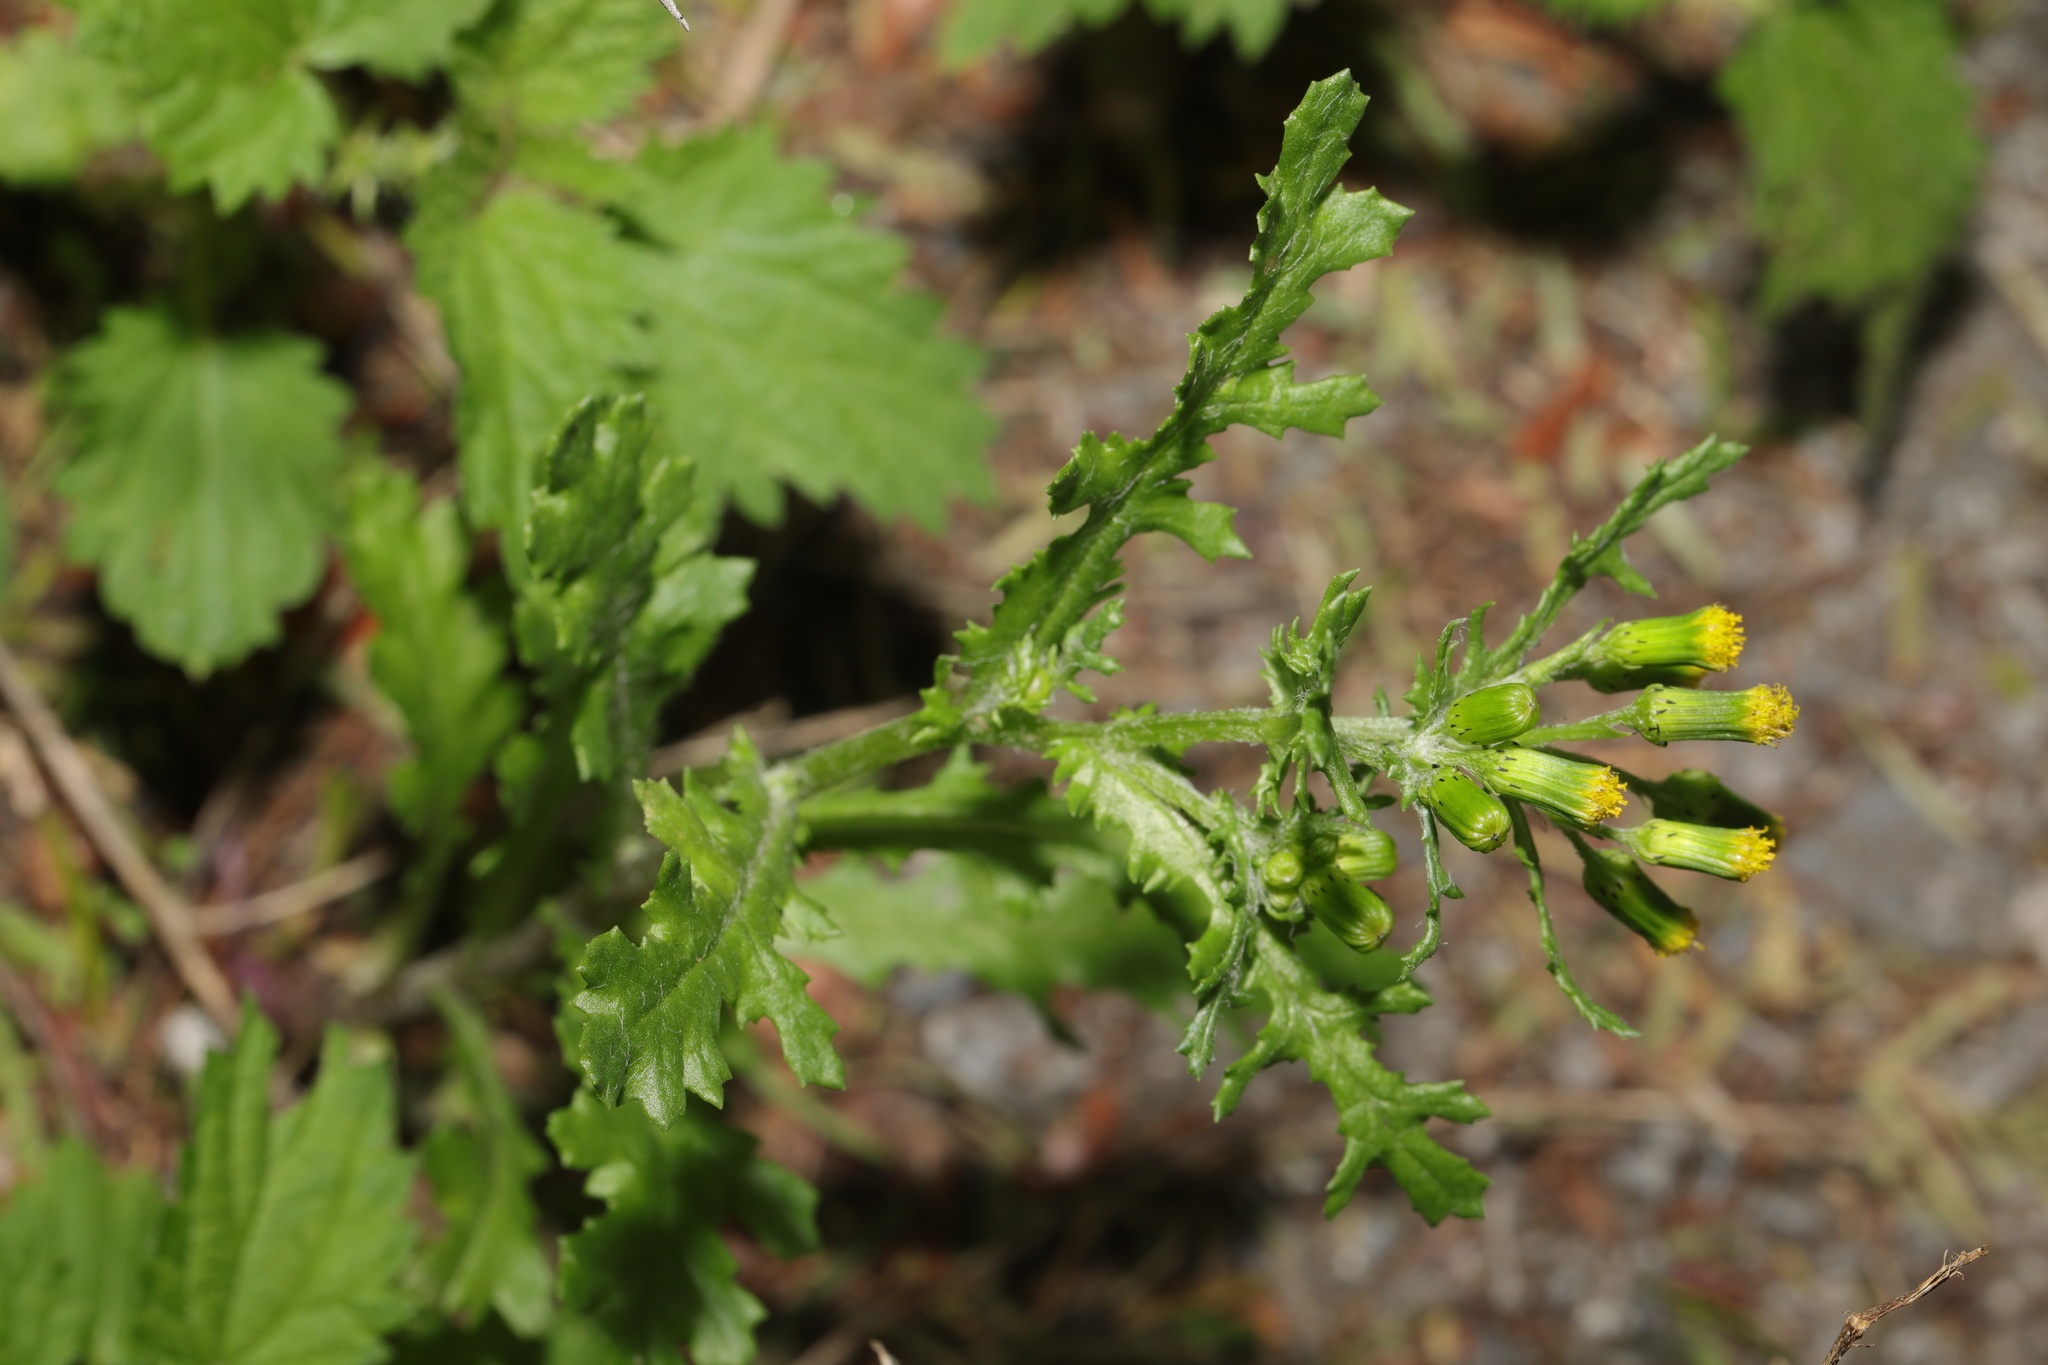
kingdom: Plantae
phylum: Tracheophyta
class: Magnoliopsida
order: Asterales
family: Asteraceae
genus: Senecio
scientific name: Senecio vulgaris
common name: Old-man-in-the-spring
